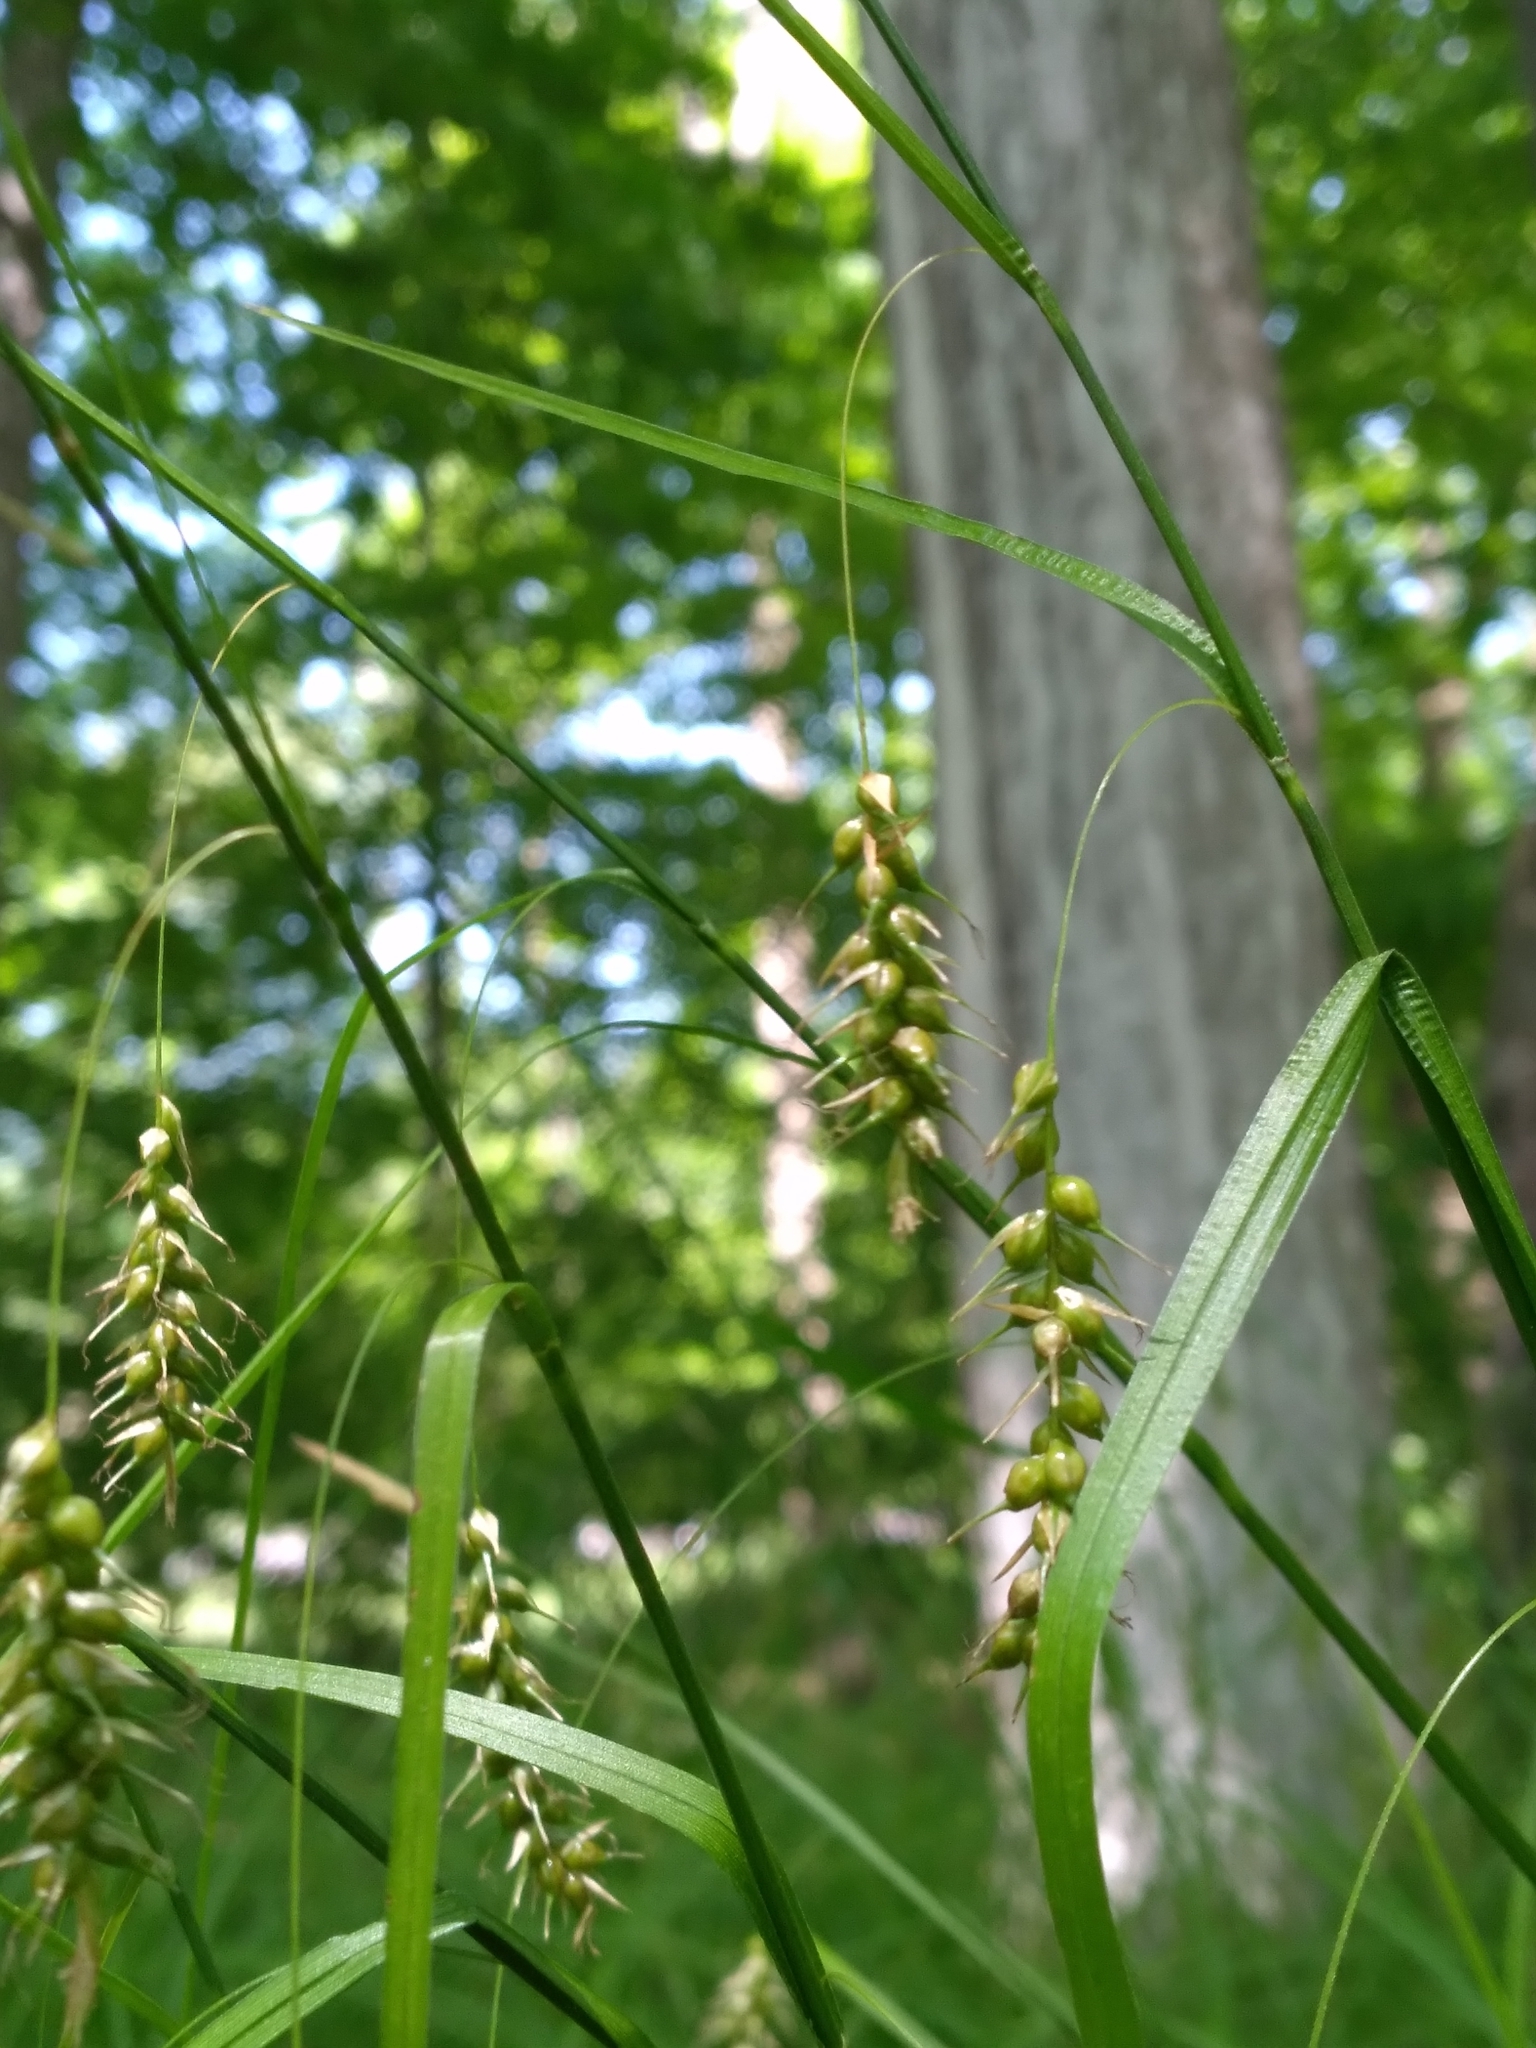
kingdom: Plantae
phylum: Tracheophyta
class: Liliopsida
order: Poales
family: Cyperaceae
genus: Carex
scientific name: Carex sprengelii
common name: Long-beaked sedge
